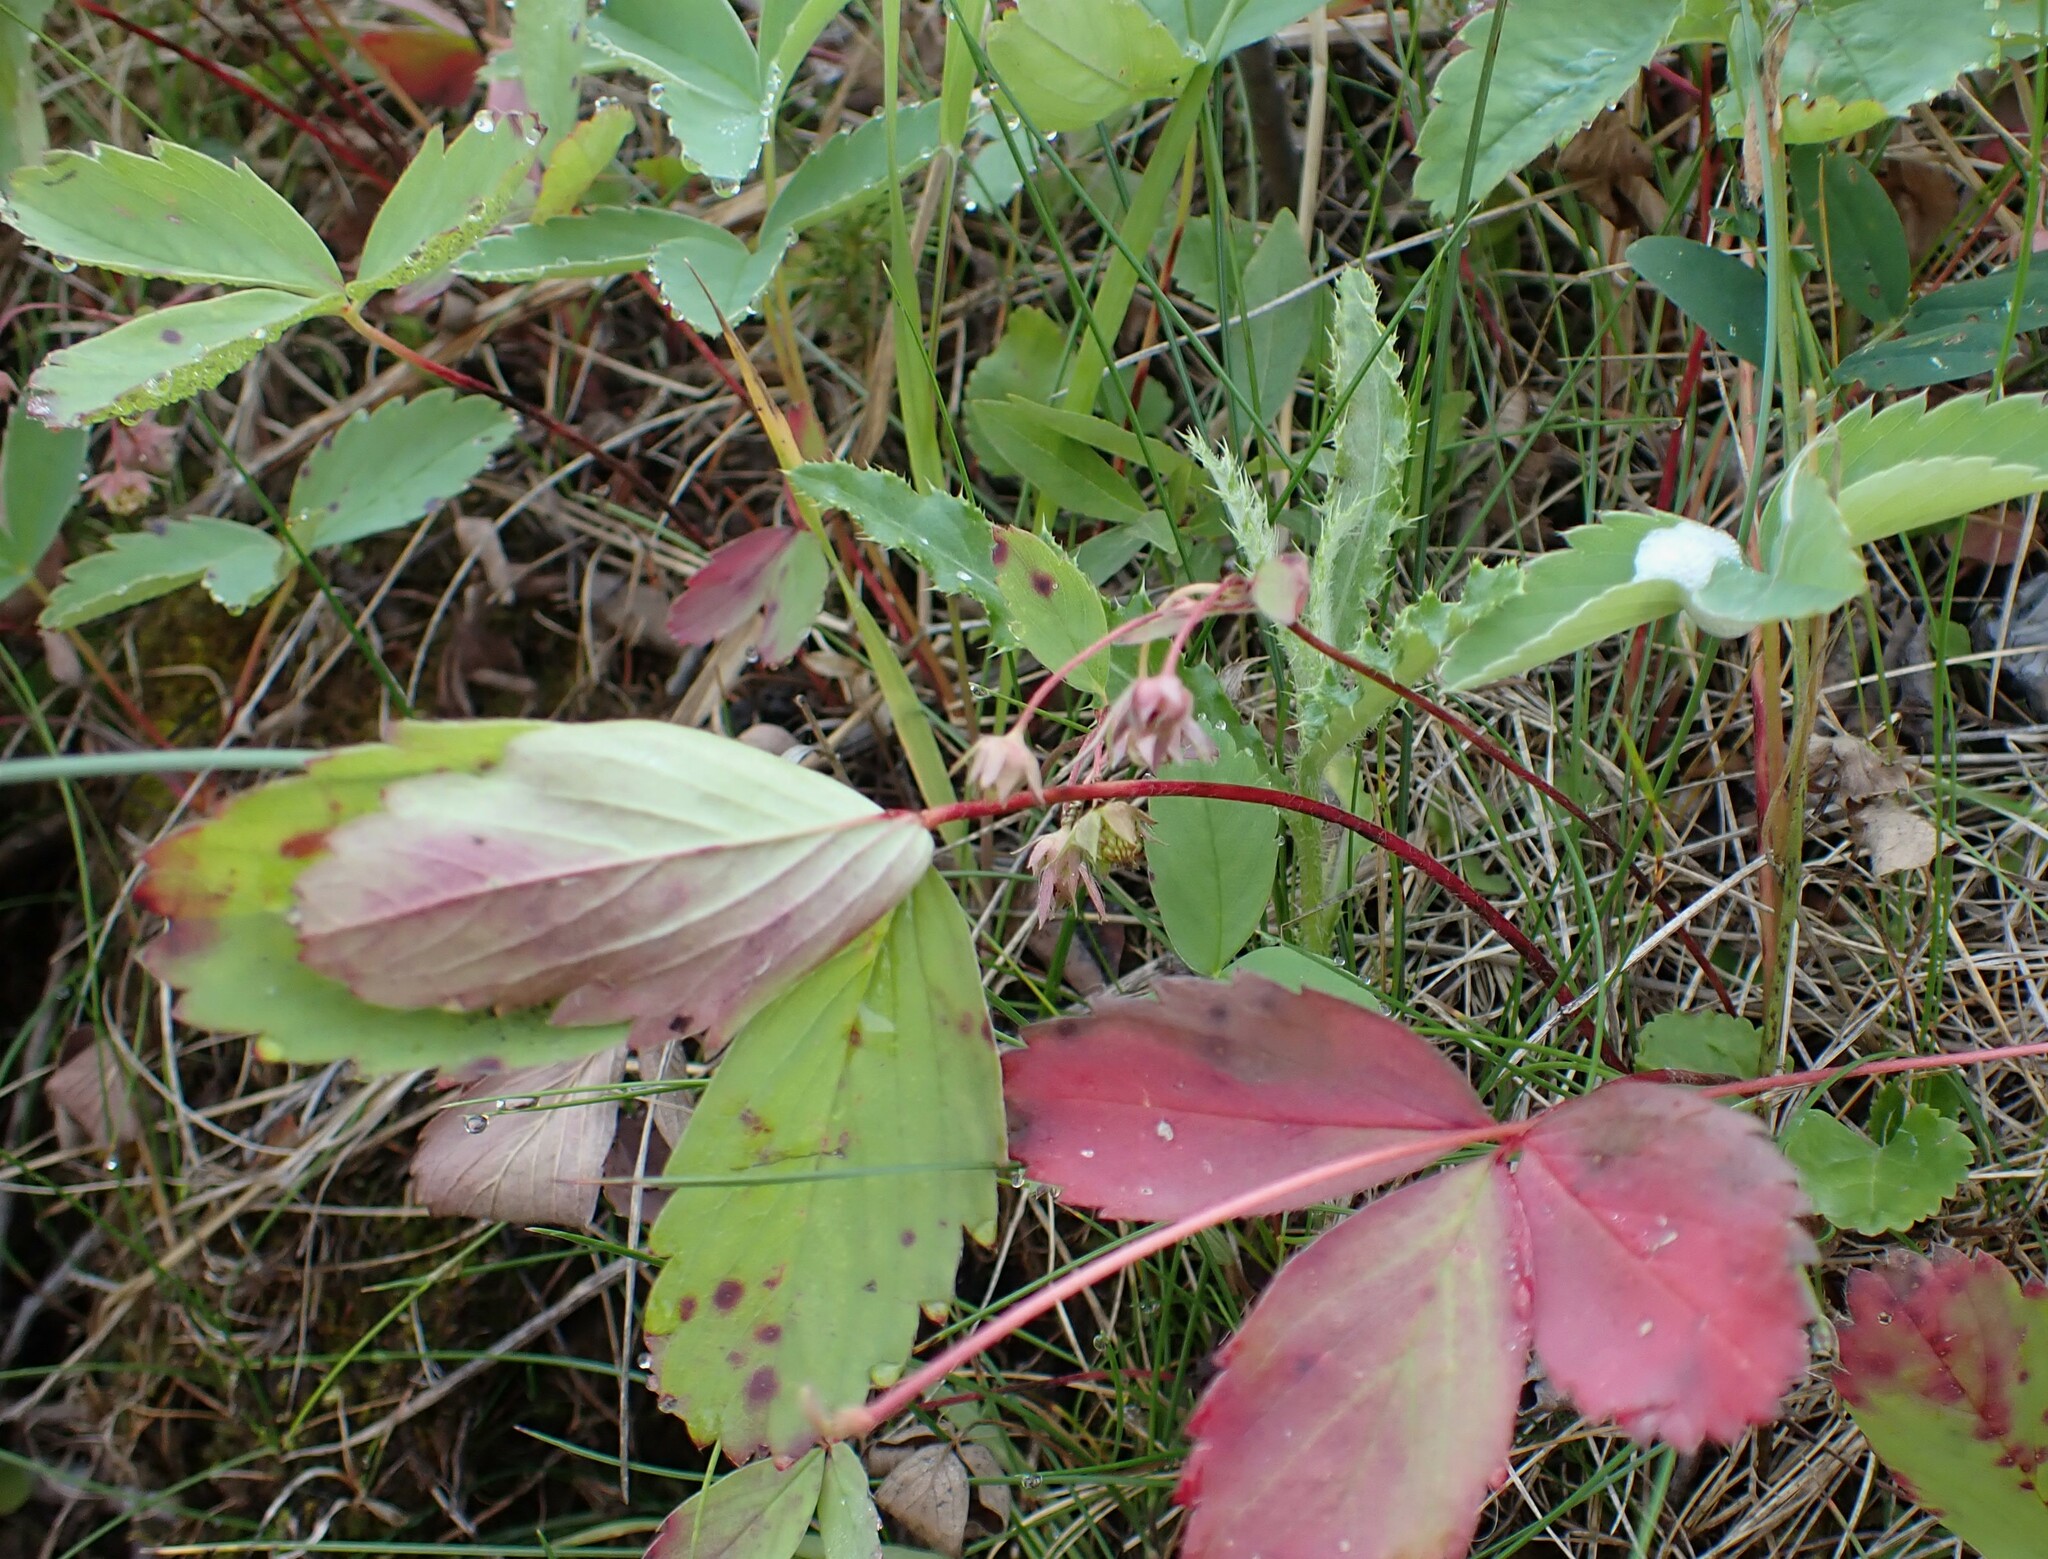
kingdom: Plantae
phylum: Tracheophyta
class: Magnoliopsida
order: Rosales
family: Rosaceae
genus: Fragaria
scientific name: Fragaria virginiana
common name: Thickleaved wild strawberry
